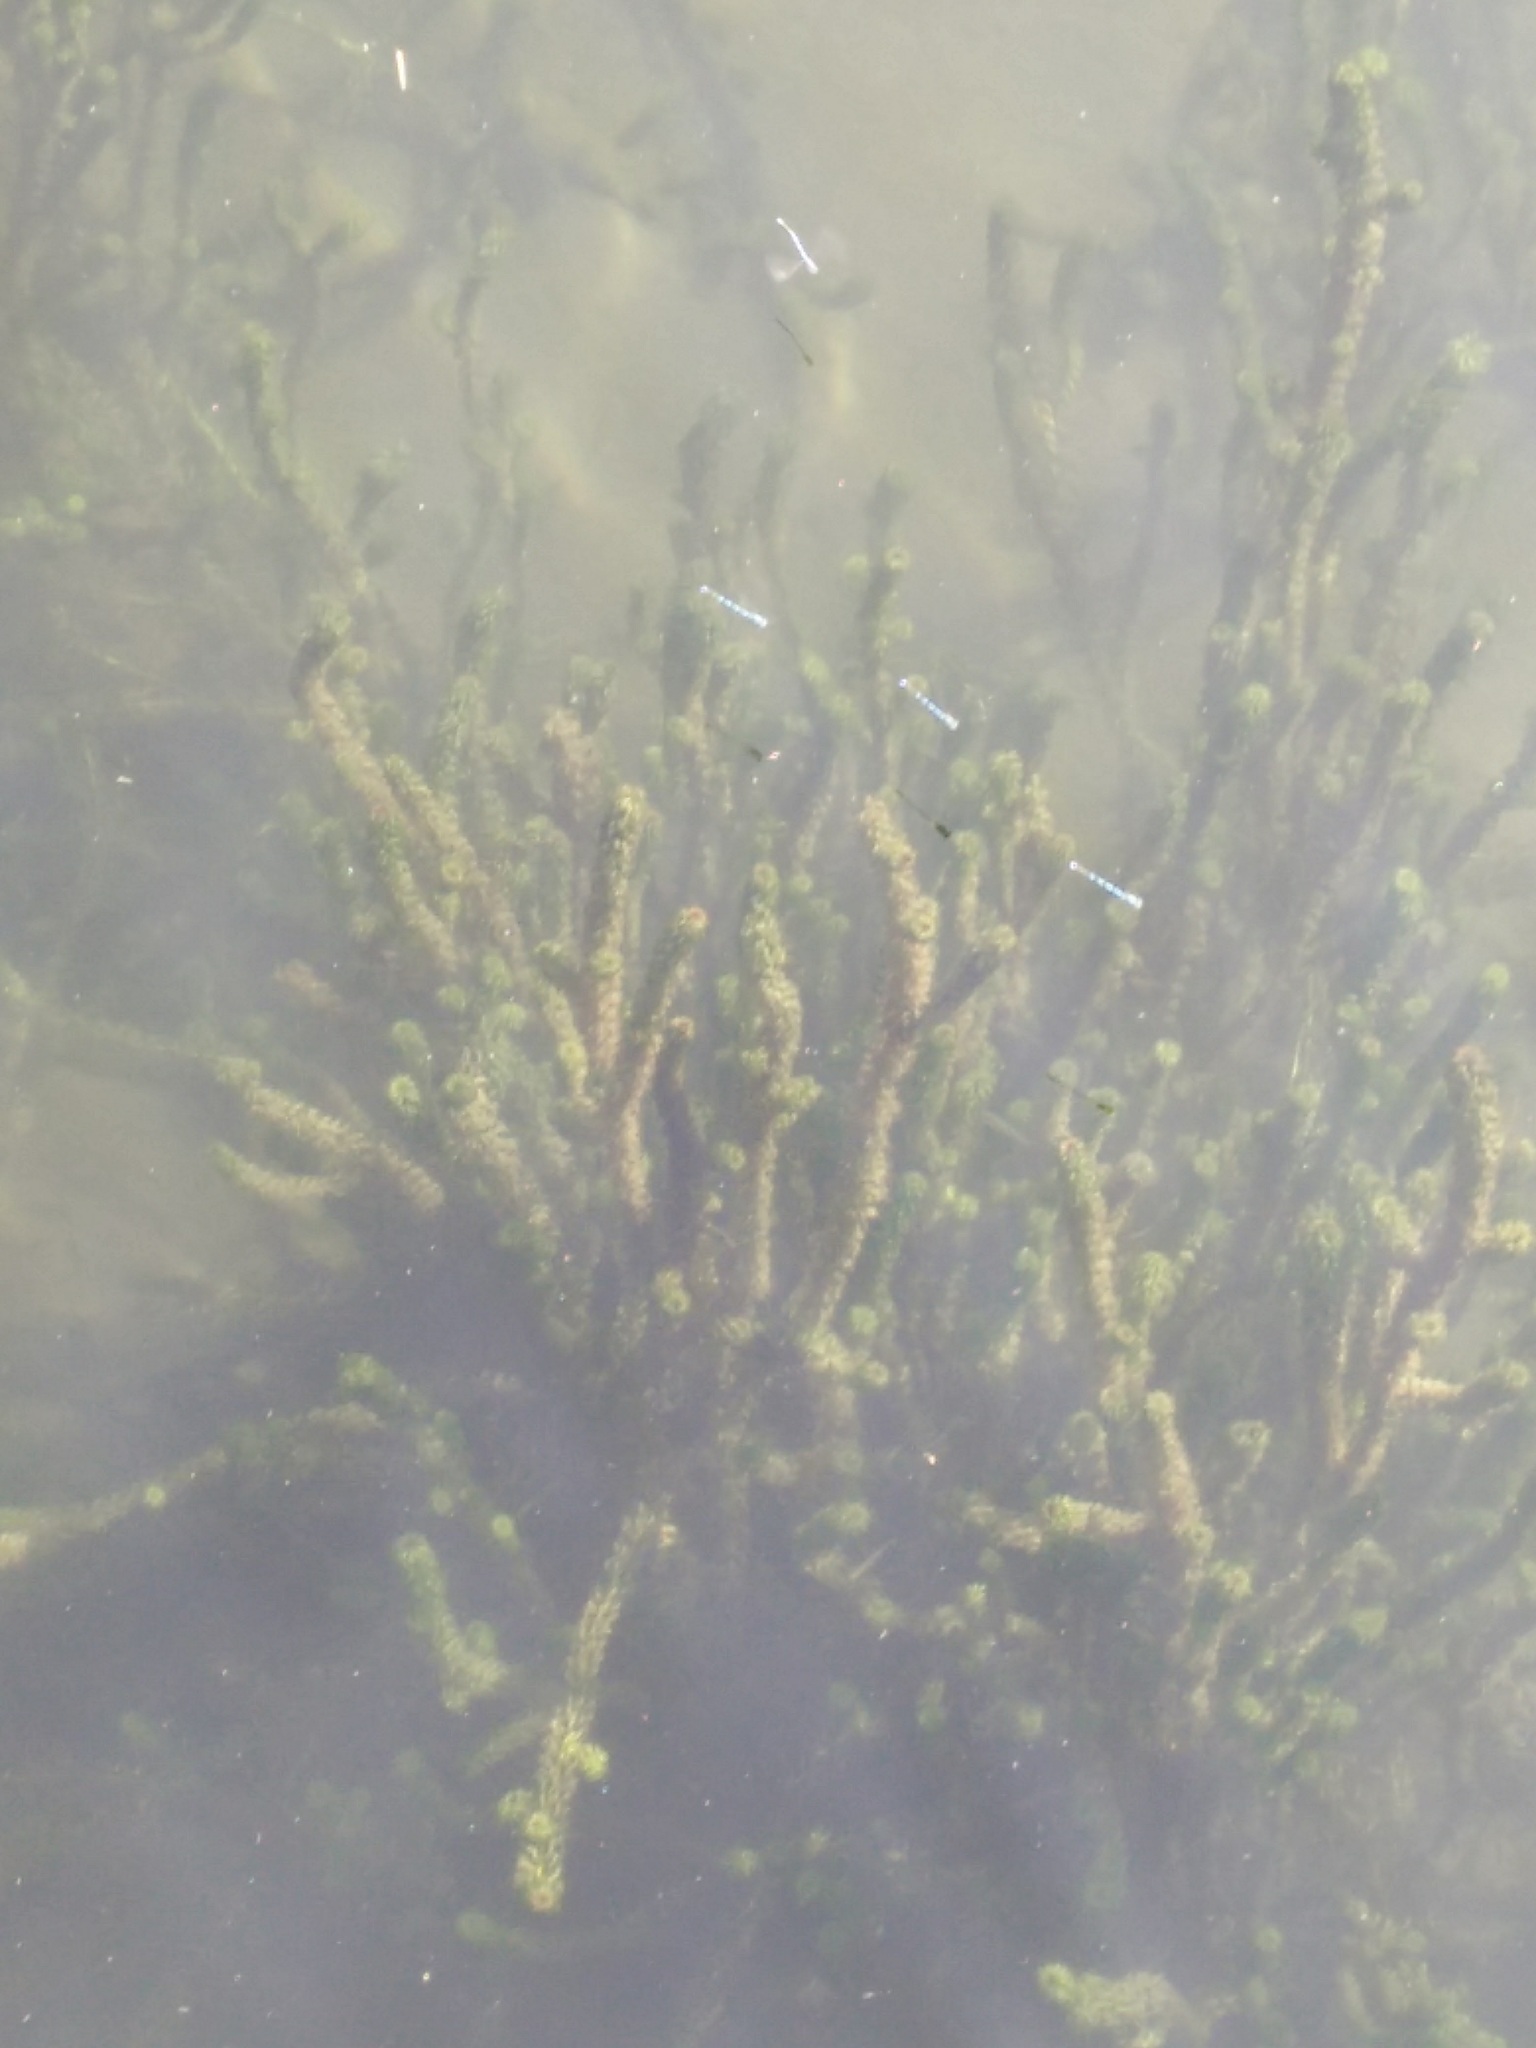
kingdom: Plantae
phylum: Tracheophyta
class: Liliopsida
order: Alismatales
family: Hydrocharitaceae
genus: Lagarosiphon
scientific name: Lagarosiphon major
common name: Curly waterweed
